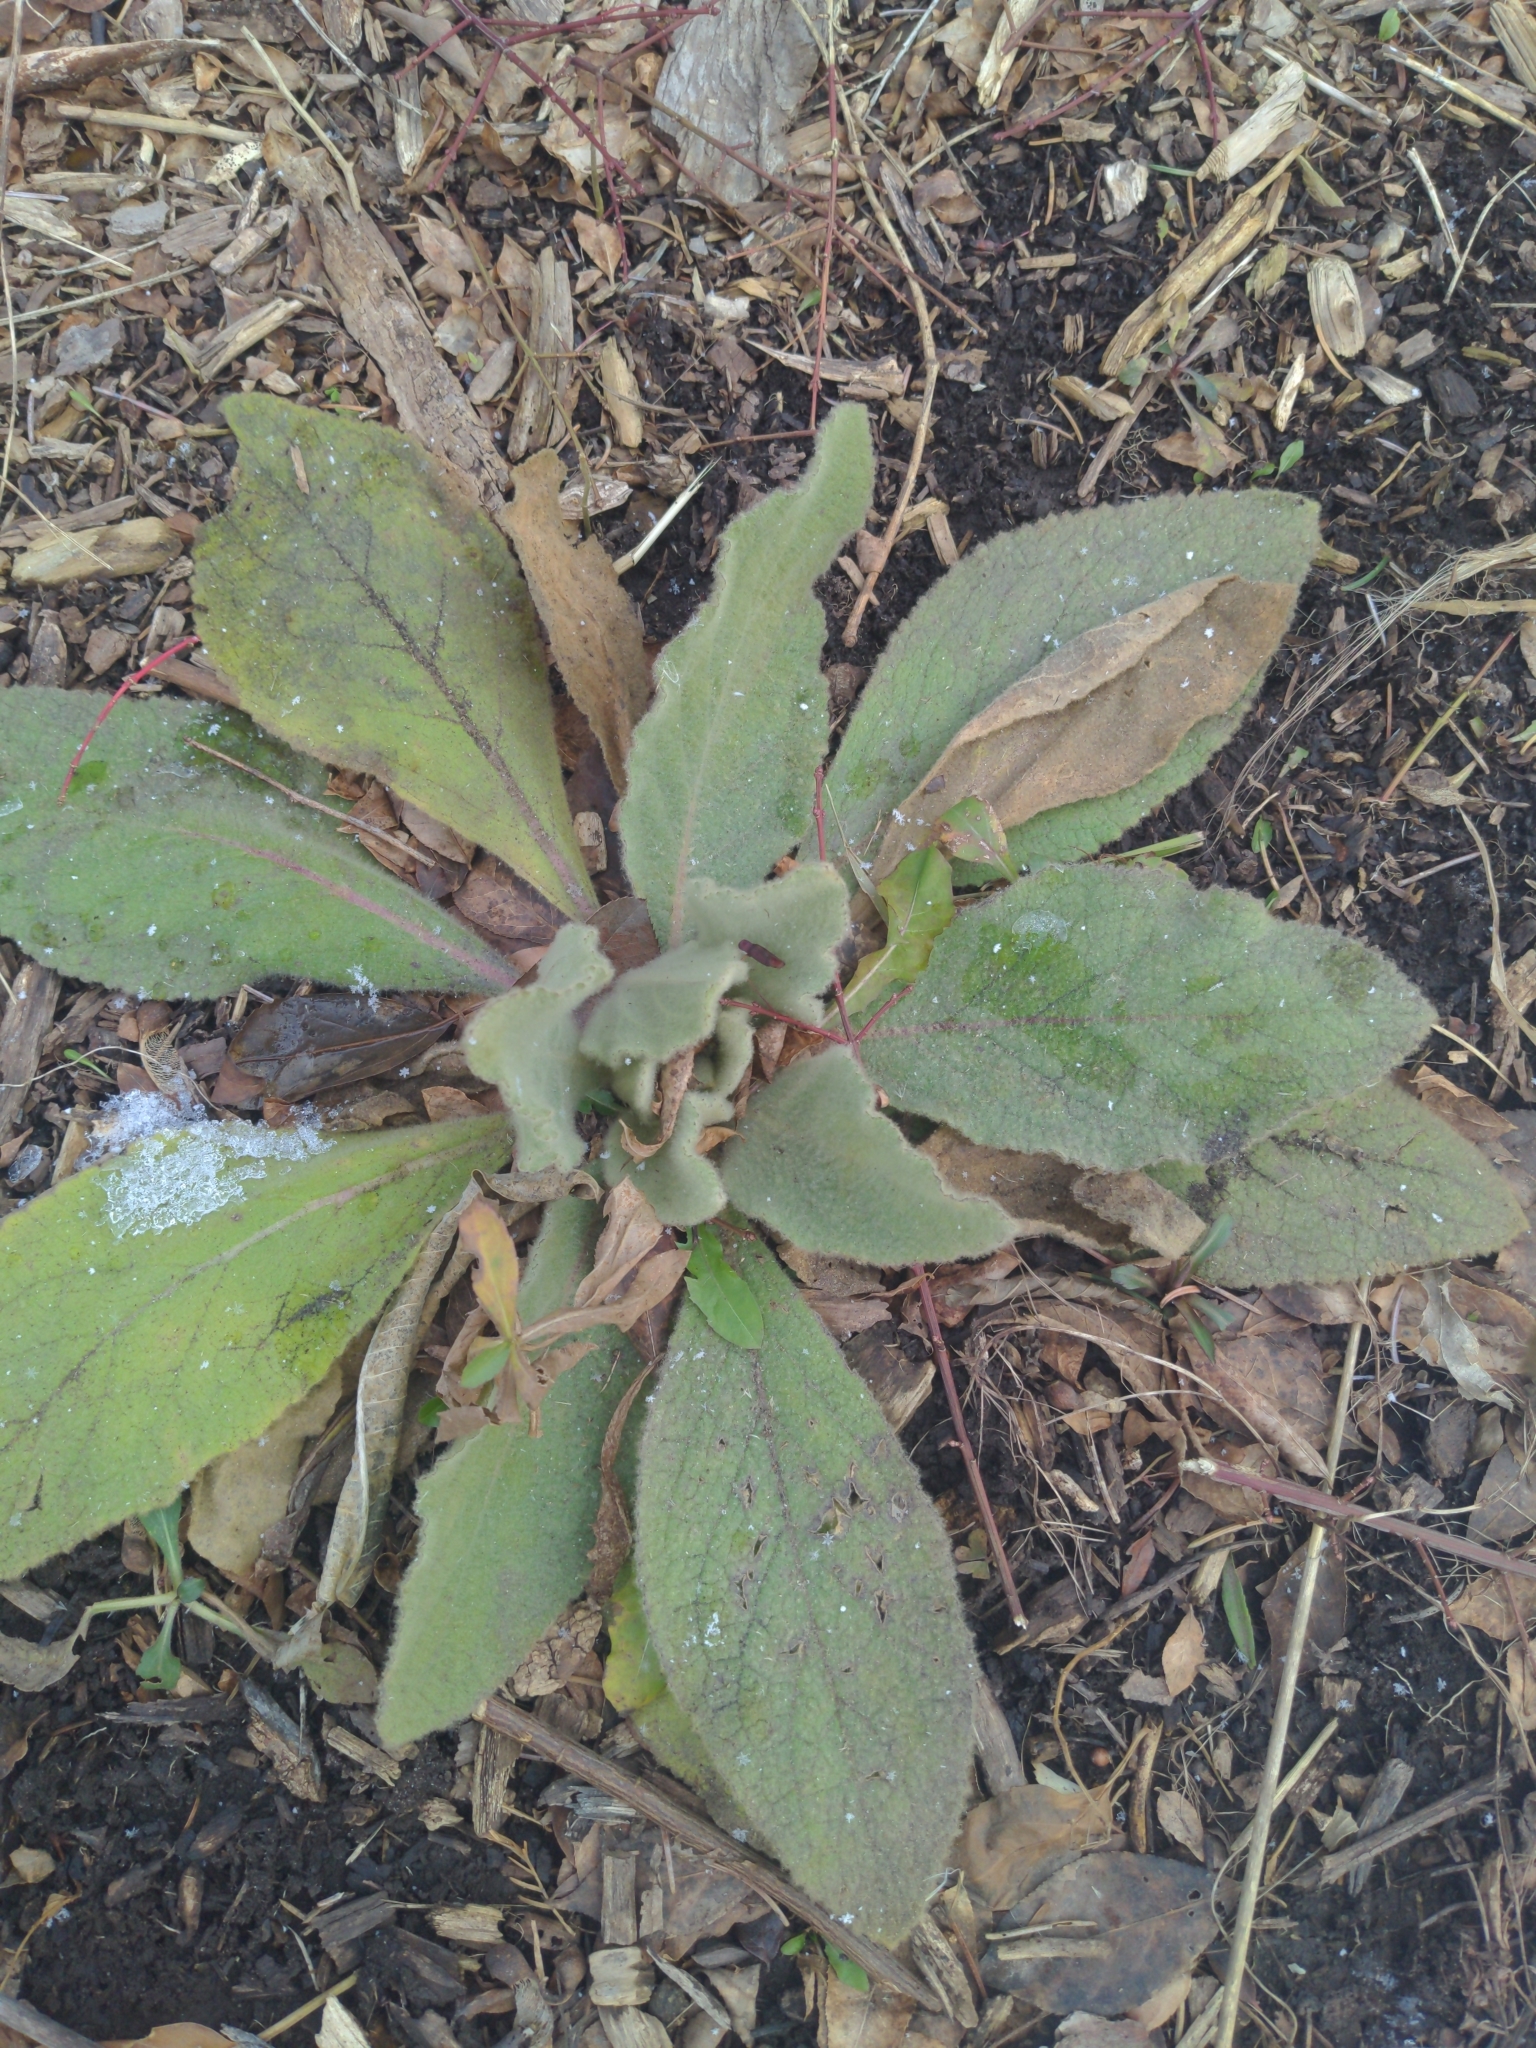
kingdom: Plantae
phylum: Tracheophyta
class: Magnoliopsida
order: Lamiales
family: Scrophulariaceae
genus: Verbascum
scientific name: Verbascum thapsus
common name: Common mullein
